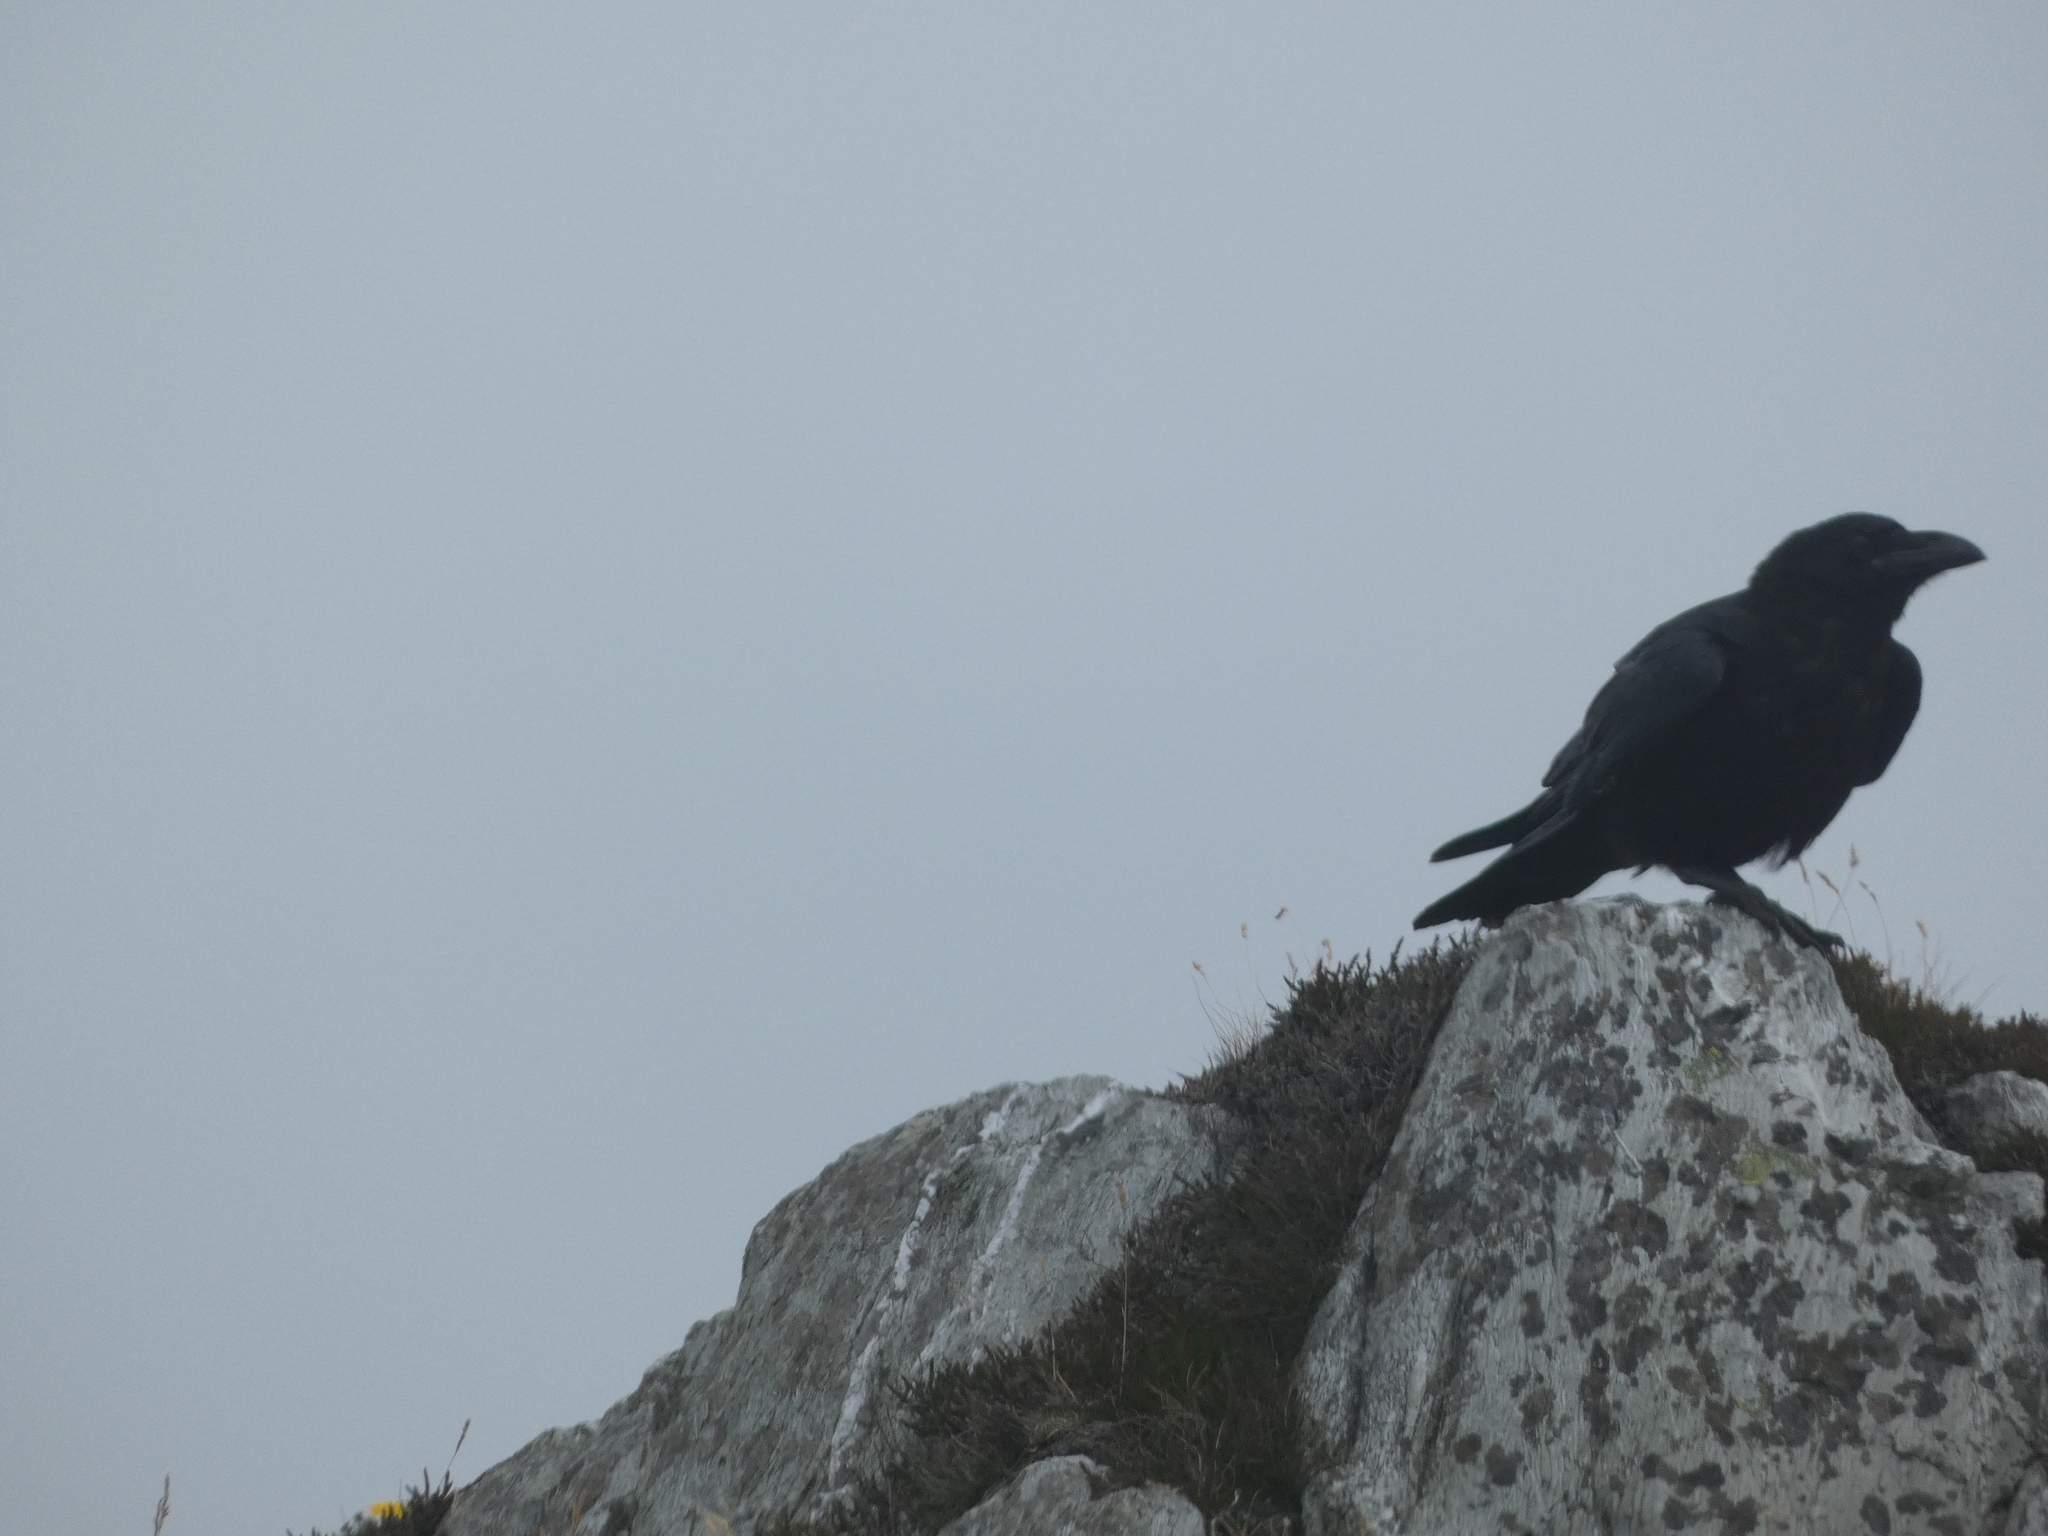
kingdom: Animalia
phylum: Chordata
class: Aves
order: Passeriformes
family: Corvidae
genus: Corvus
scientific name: Corvus corax
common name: Common raven
